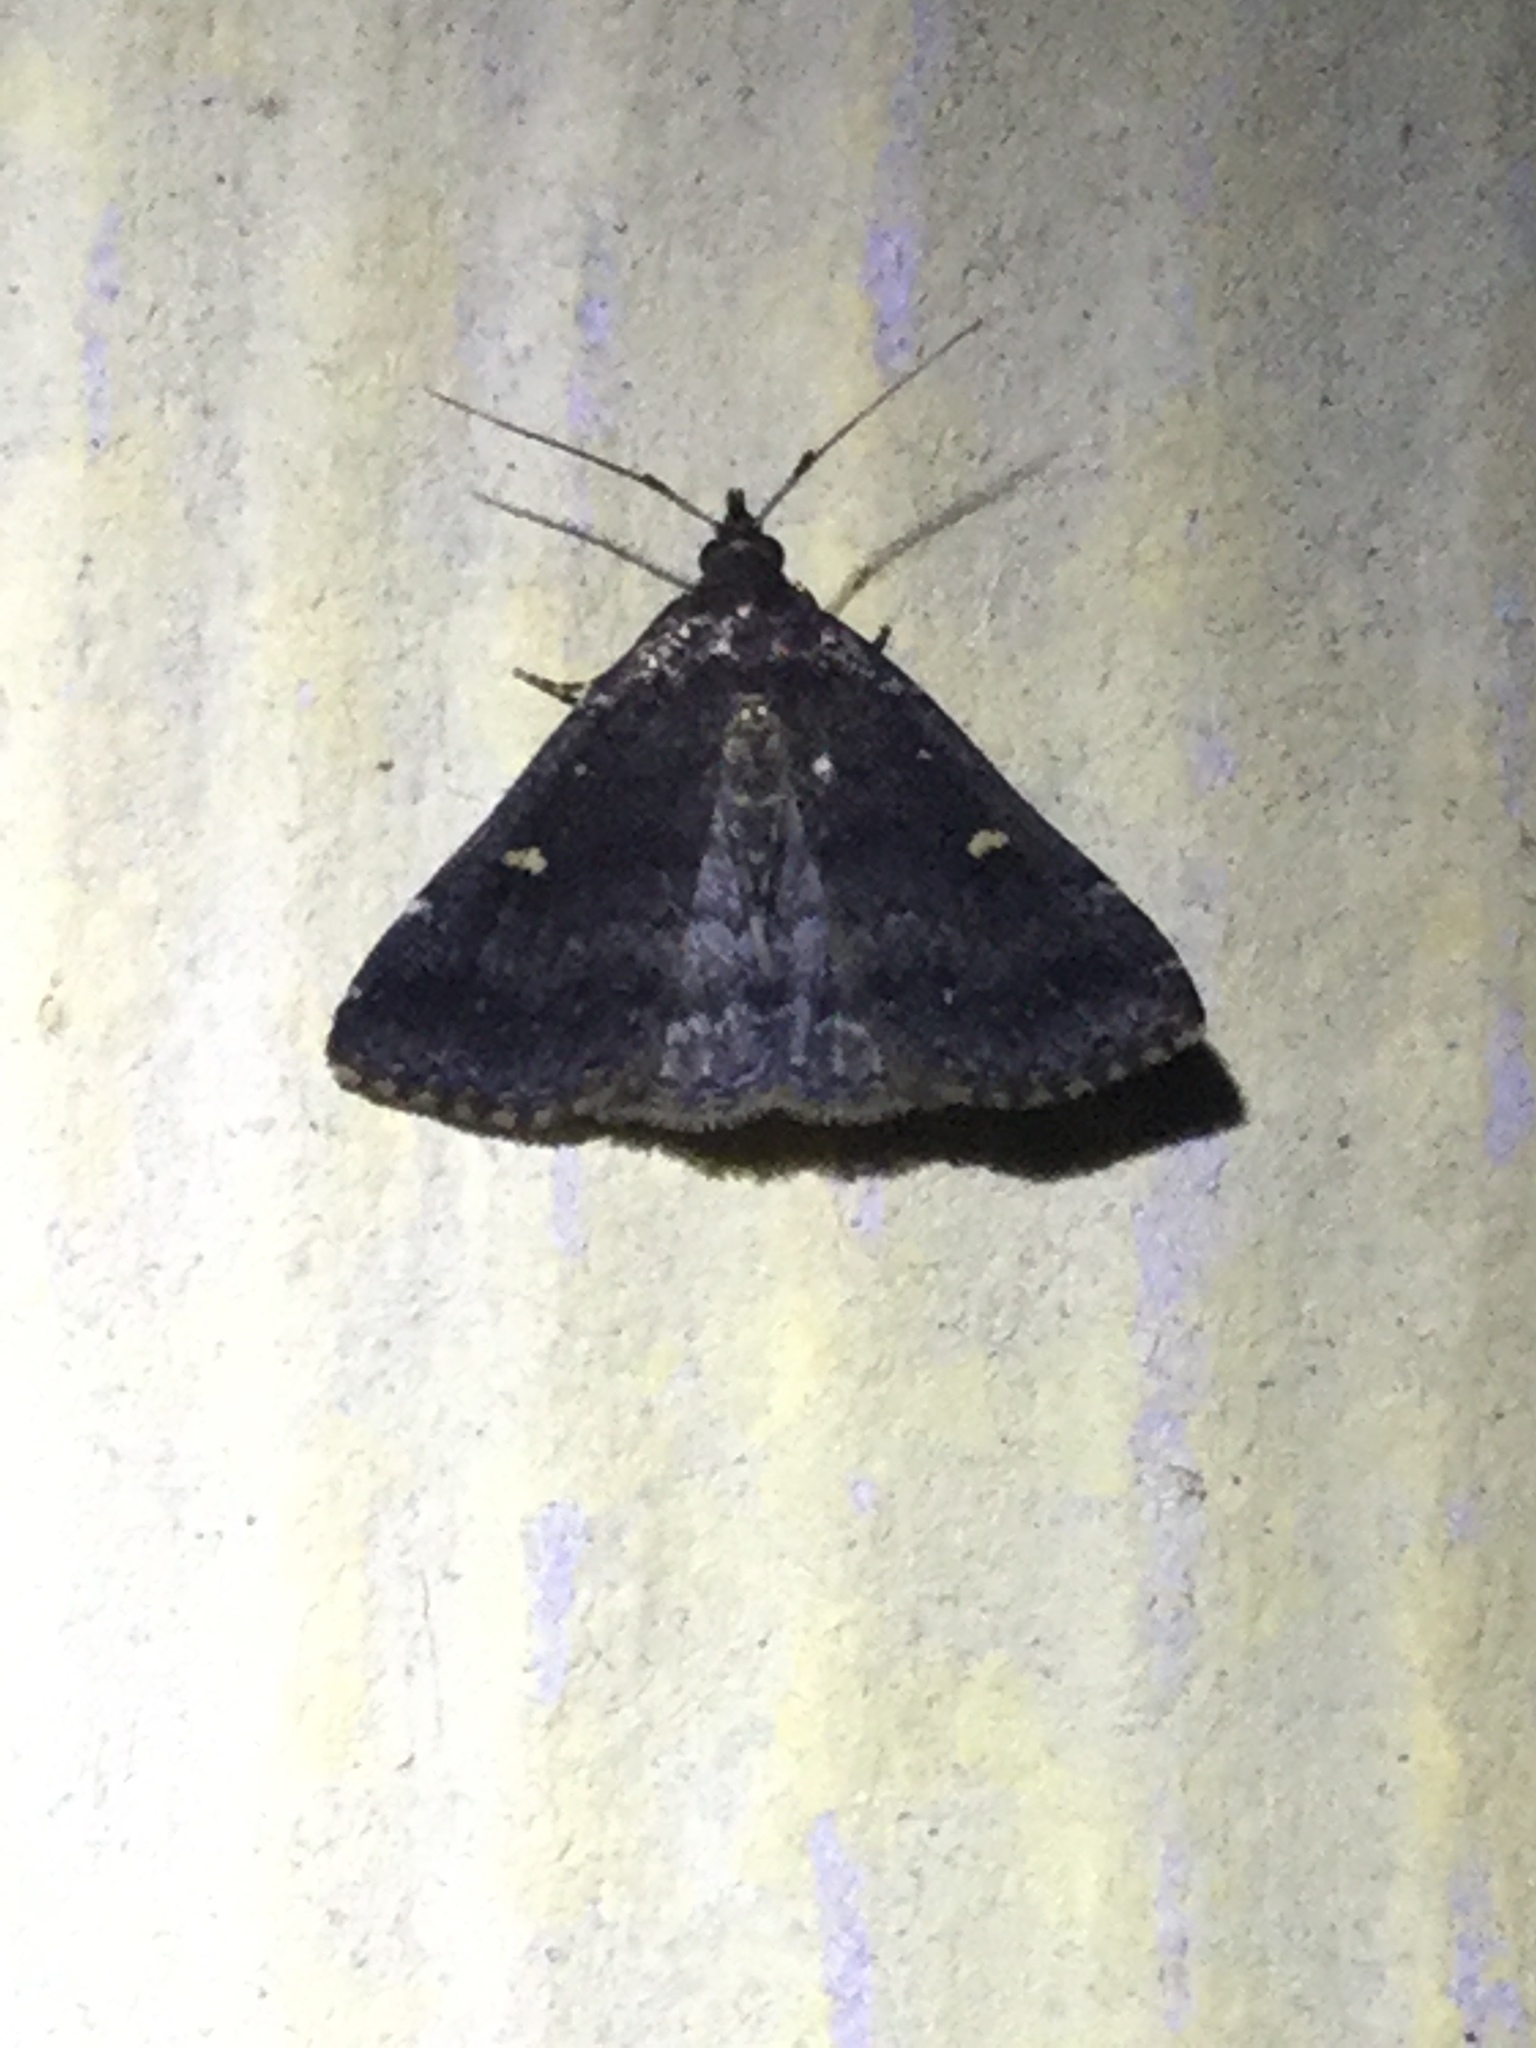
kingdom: Animalia
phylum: Arthropoda
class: Insecta
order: Lepidoptera
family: Erebidae
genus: Tetanolita
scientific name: Tetanolita mynesalis
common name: Smoky tetanolita moth
